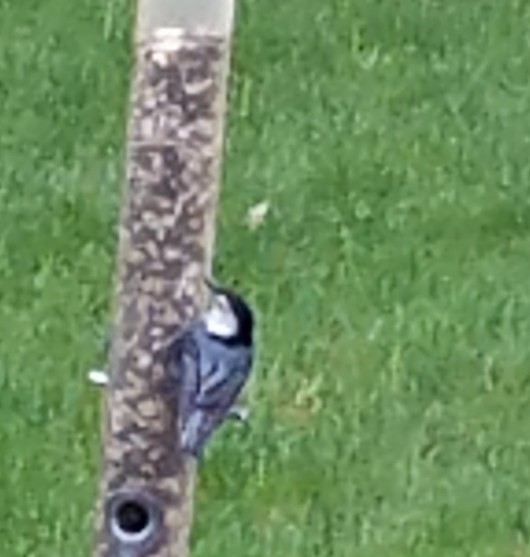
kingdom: Animalia
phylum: Chordata
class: Aves
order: Passeriformes
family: Sittidae
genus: Sitta
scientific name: Sitta carolinensis
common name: White-breasted nuthatch
